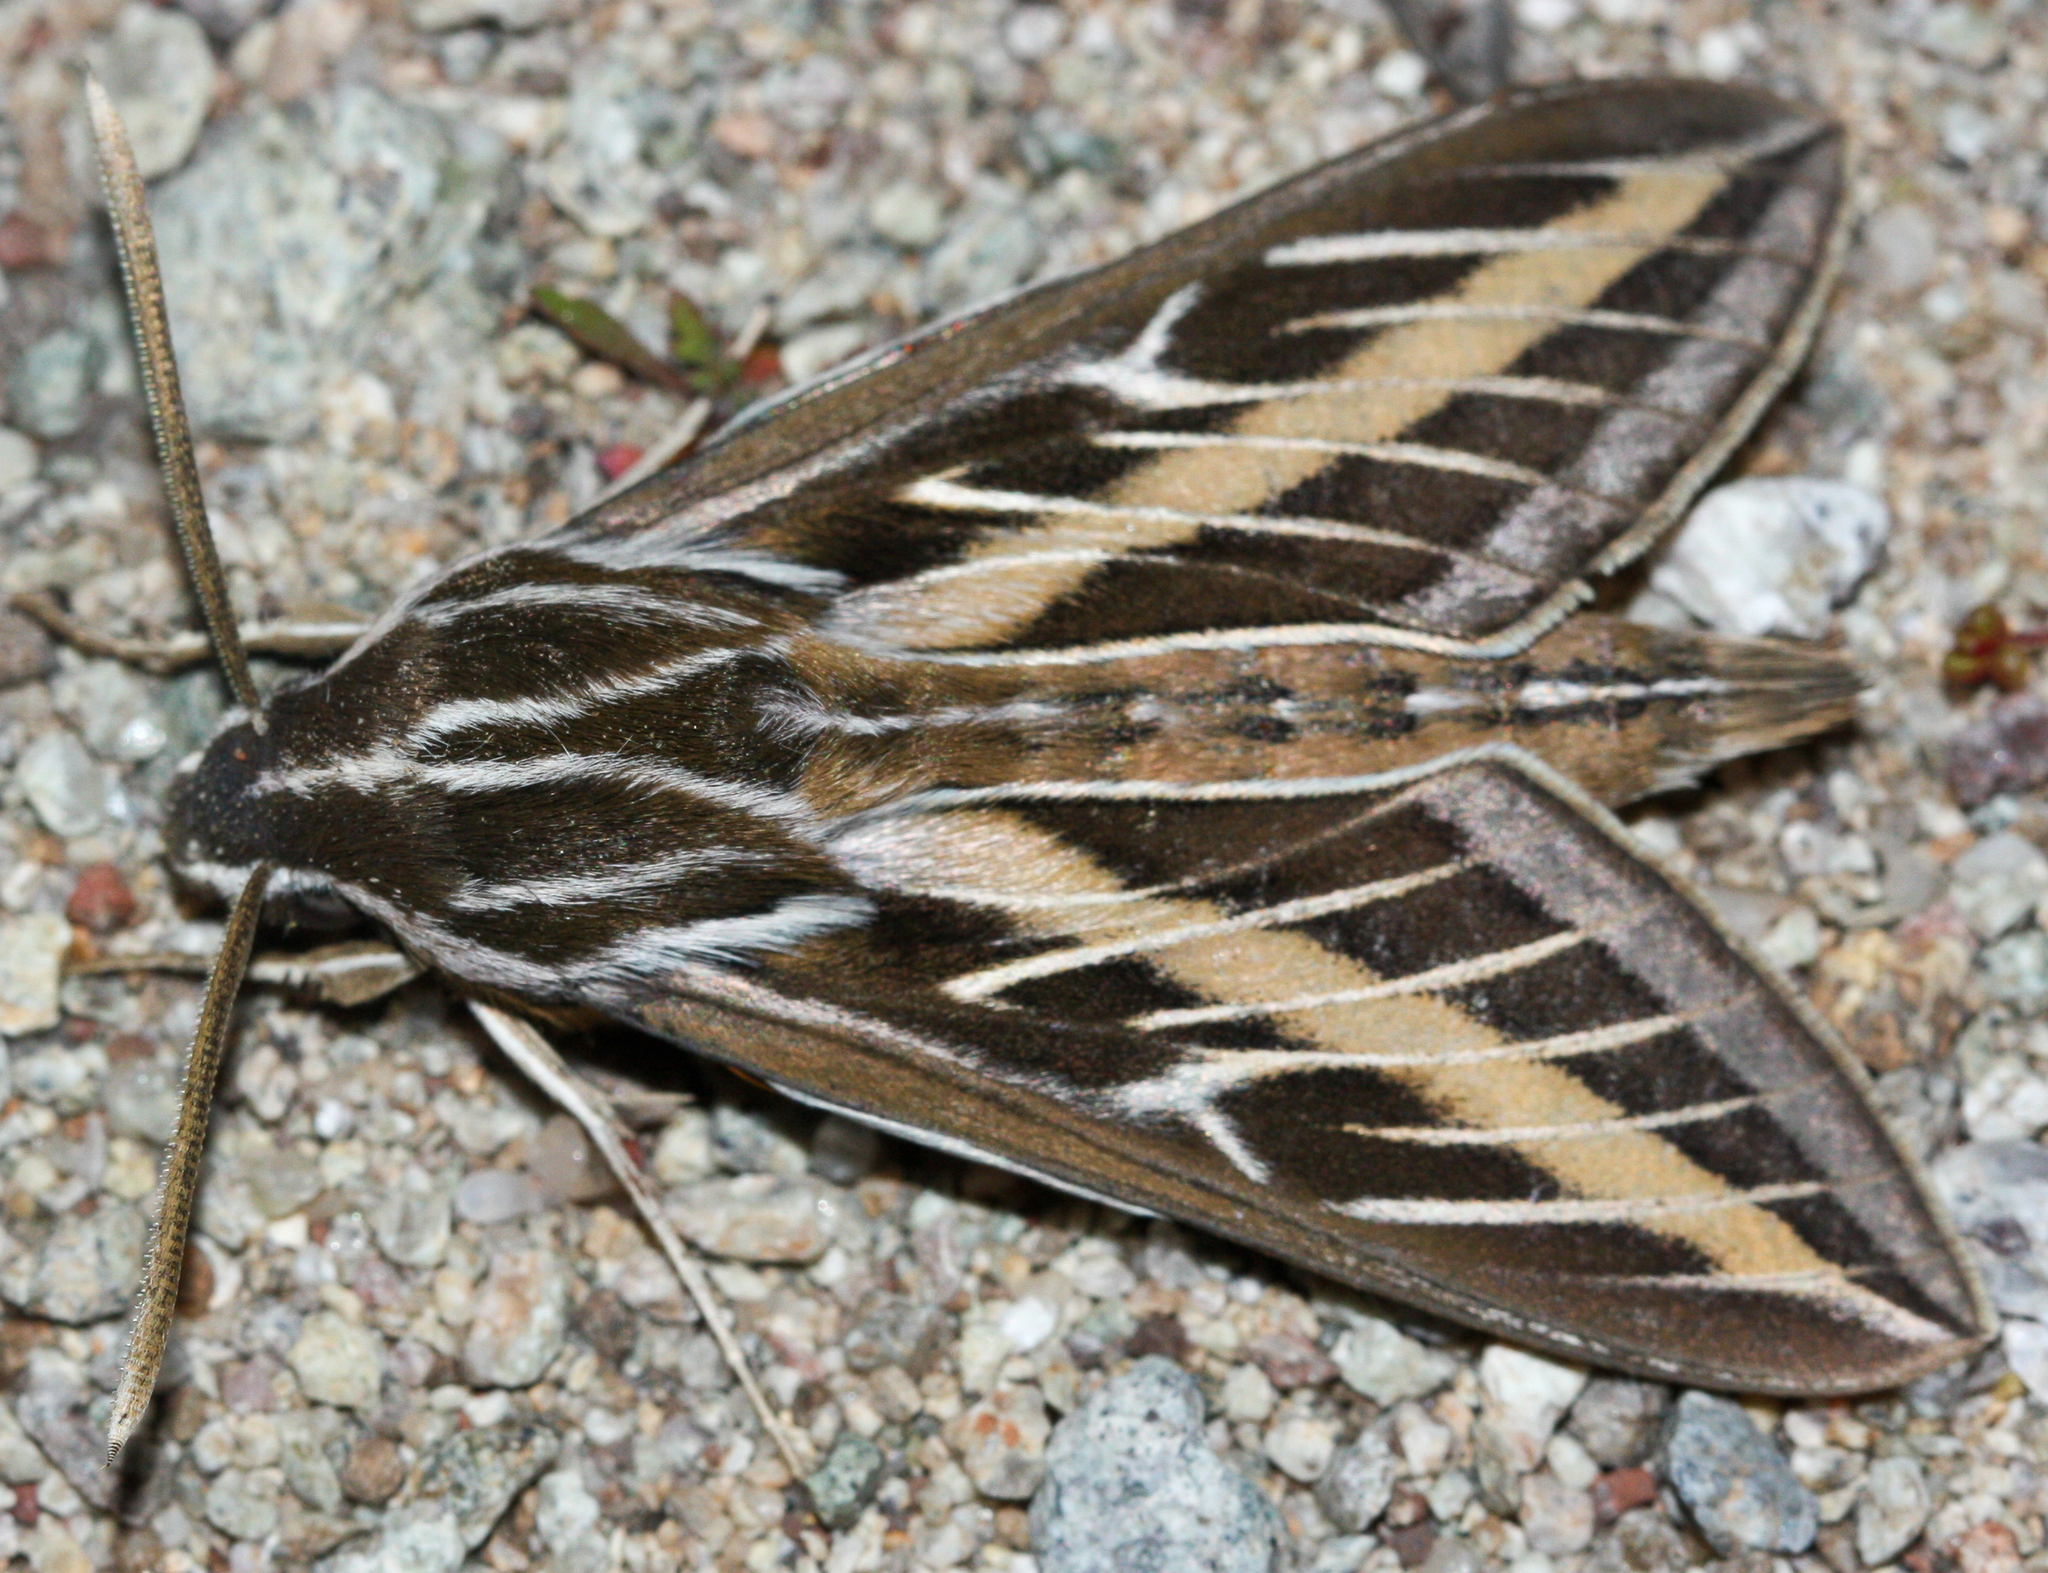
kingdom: Animalia
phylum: Arthropoda
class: Insecta
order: Lepidoptera
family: Sphingidae
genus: Hyles
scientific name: Hyles lineata
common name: White-lined sphinx
